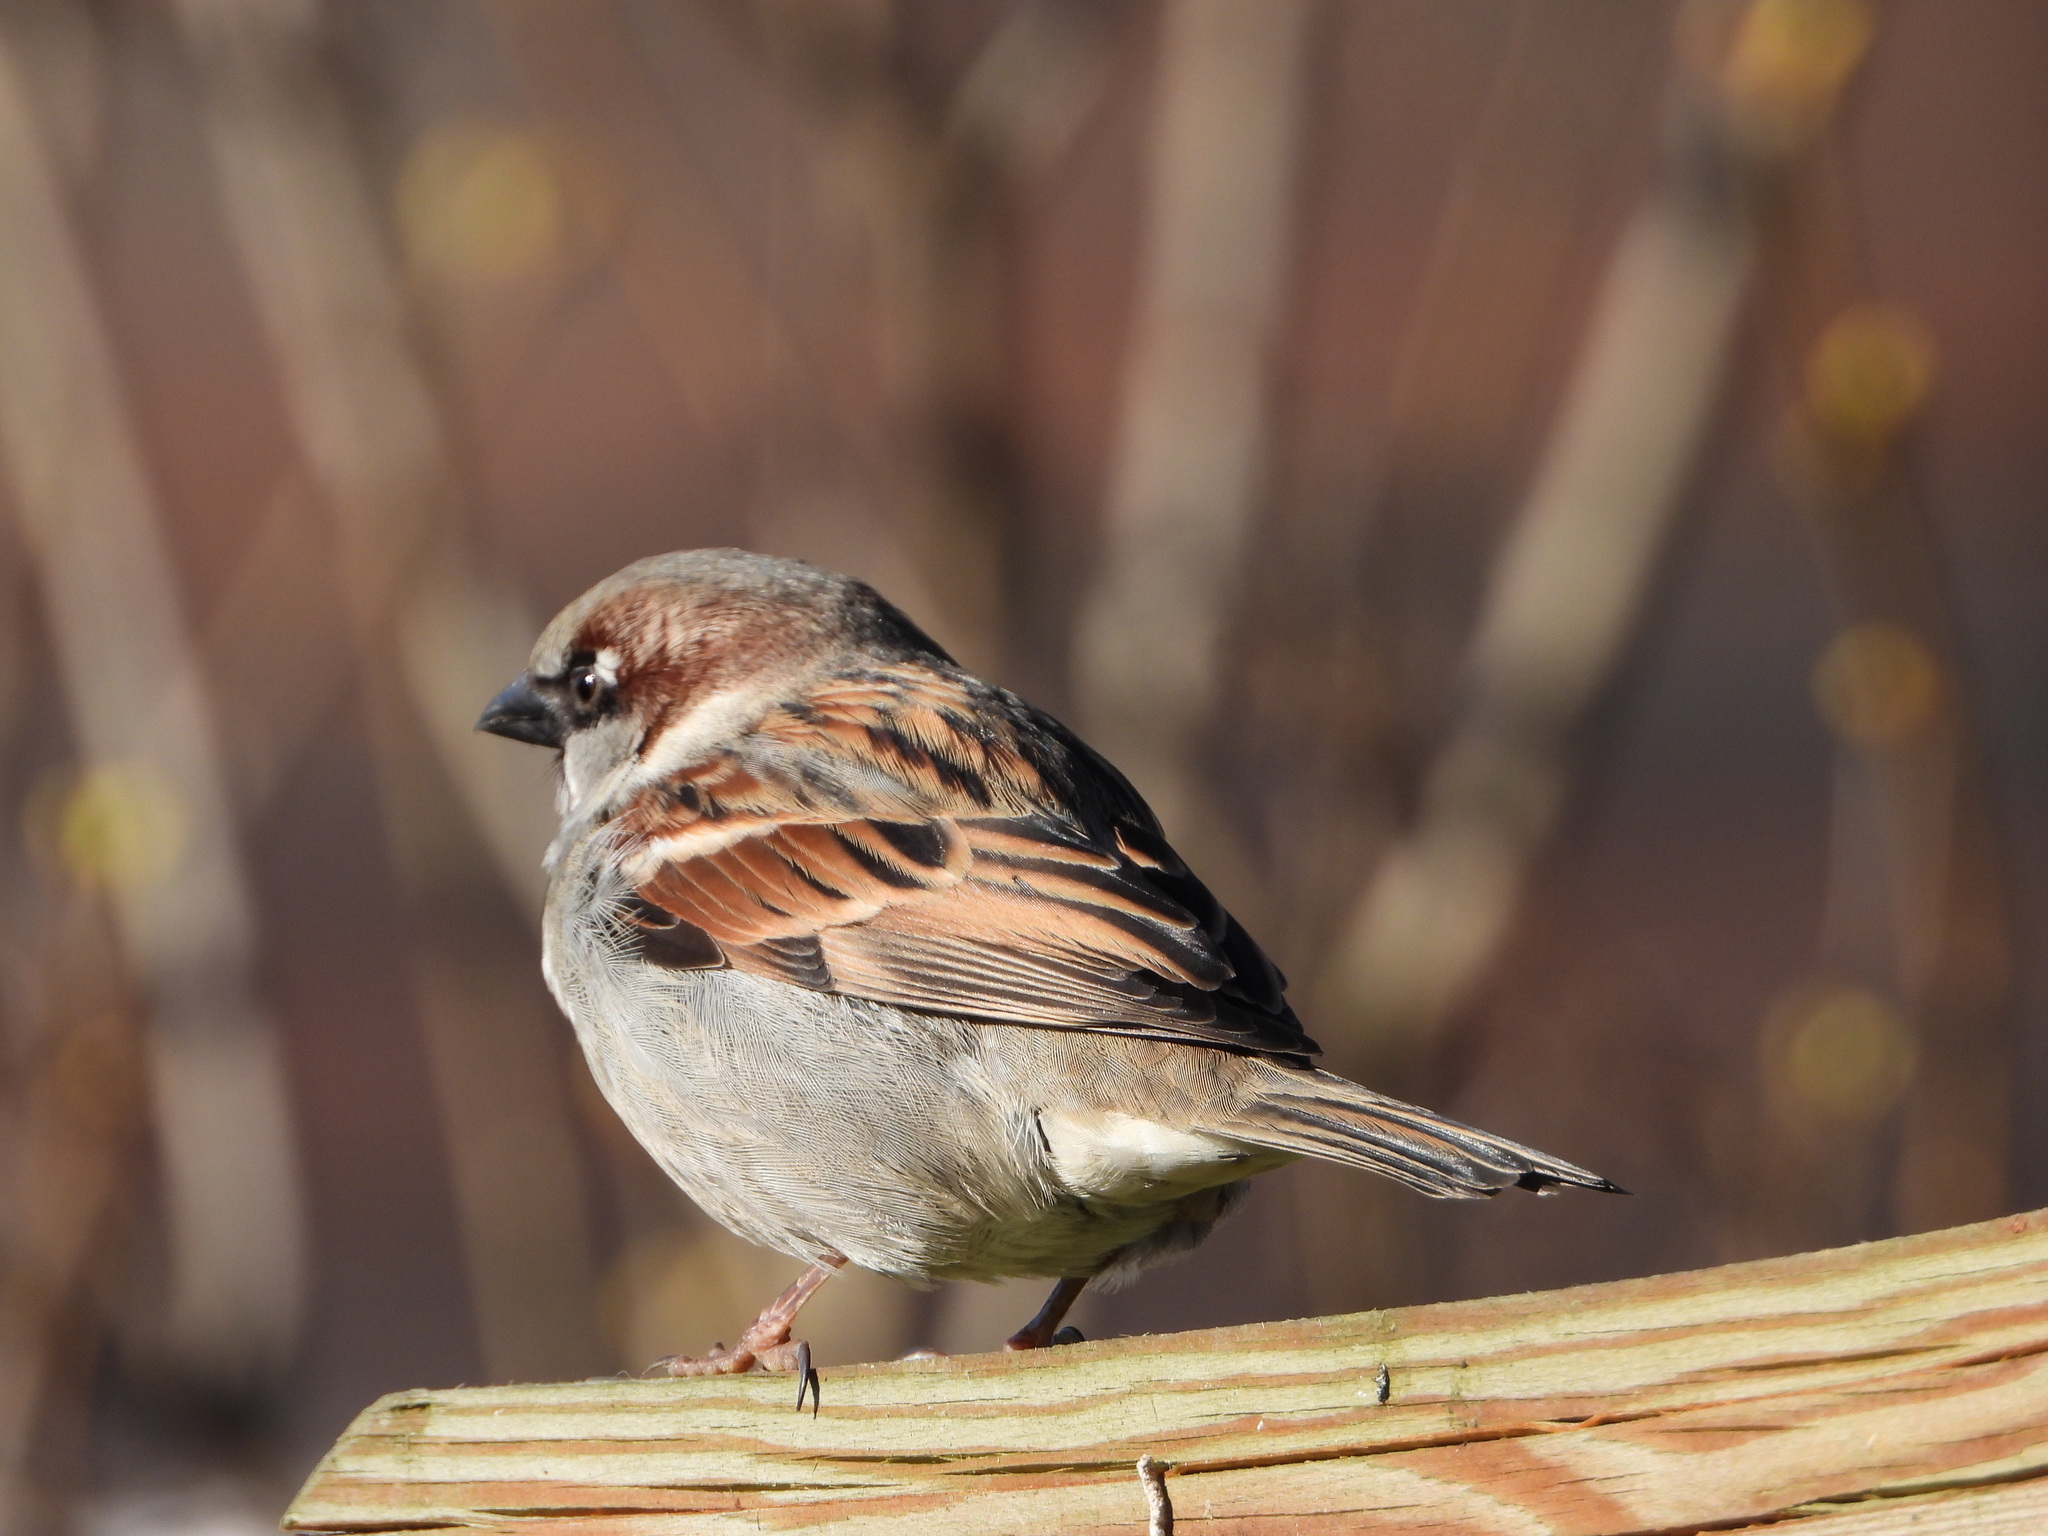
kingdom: Animalia
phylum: Chordata
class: Aves
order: Passeriformes
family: Passeridae
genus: Passer
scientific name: Passer domesticus
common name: House sparrow
